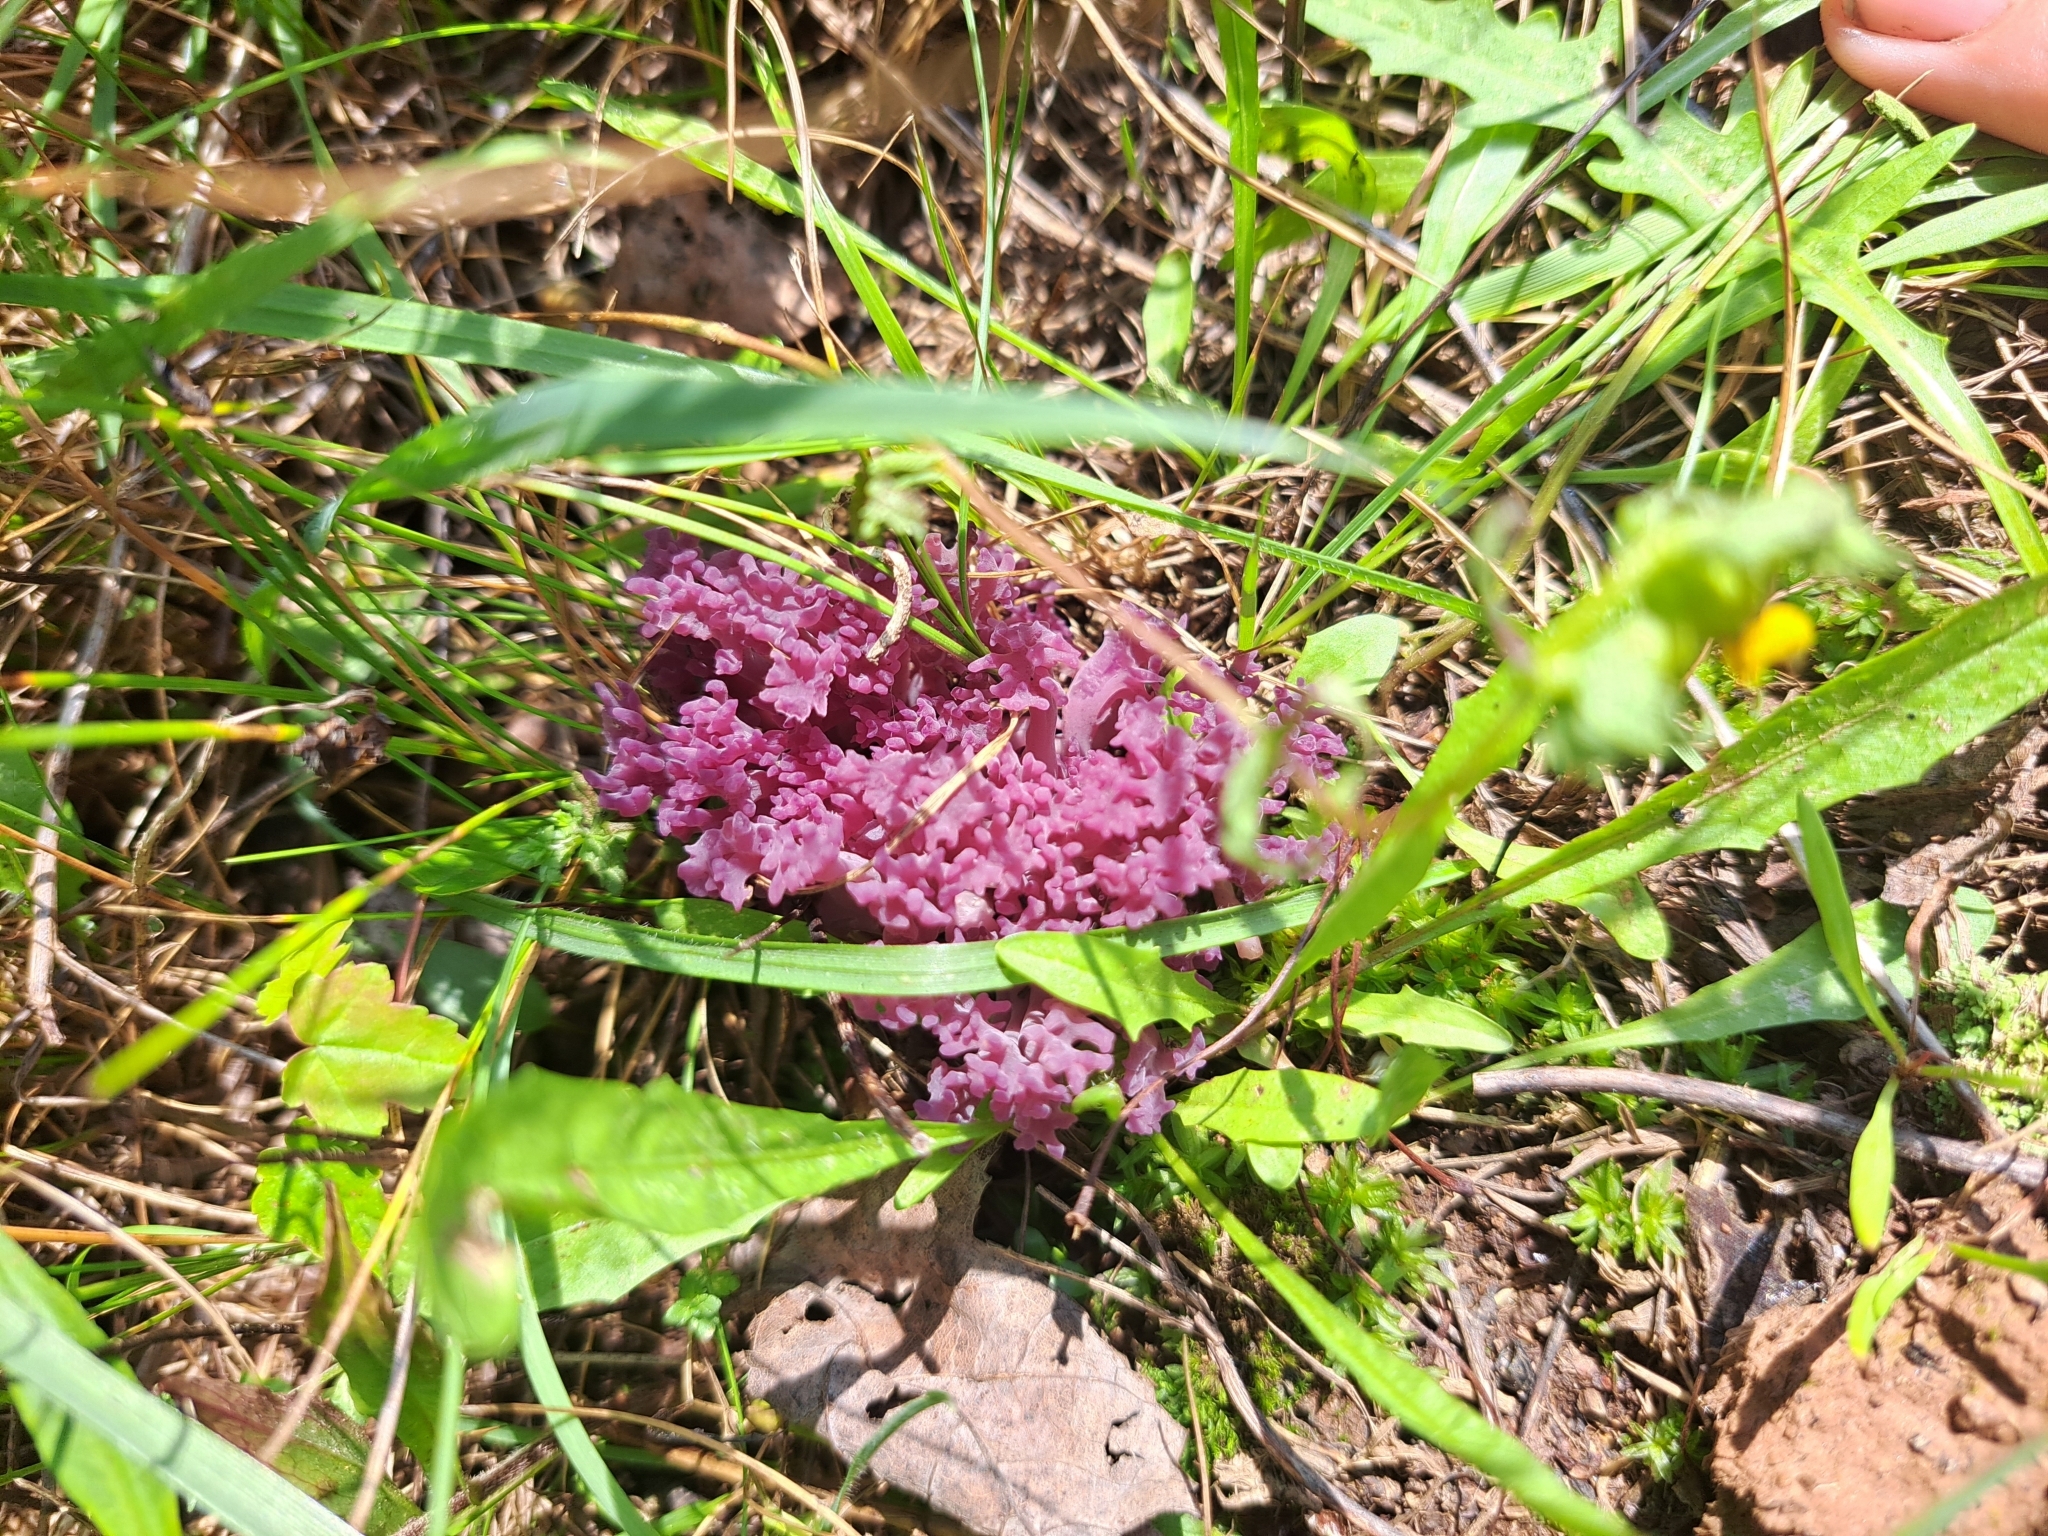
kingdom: Fungi
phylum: Basidiomycota
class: Agaricomycetes
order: Agaricales
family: Clavariaceae
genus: Clavaria
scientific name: Clavaria zollingeri
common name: Violet coral
